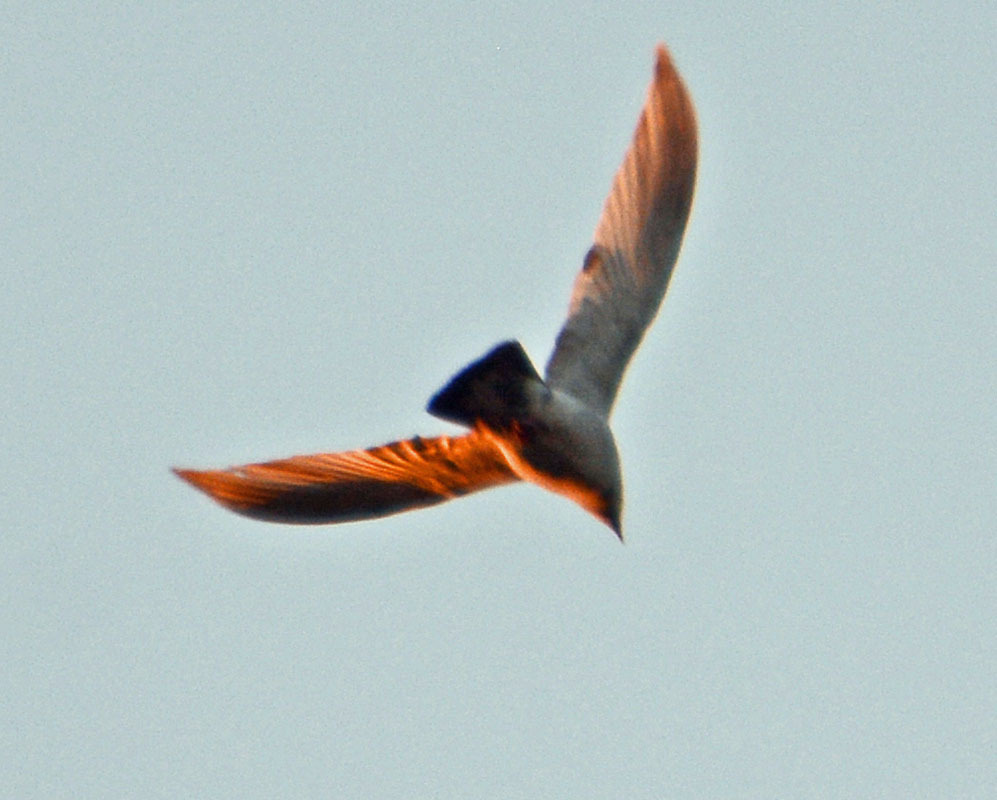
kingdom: Animalia
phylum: Chordata
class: Aves
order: Columbiformes
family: Columbidae
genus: Columba
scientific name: Columba livia
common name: Rock pigeon
